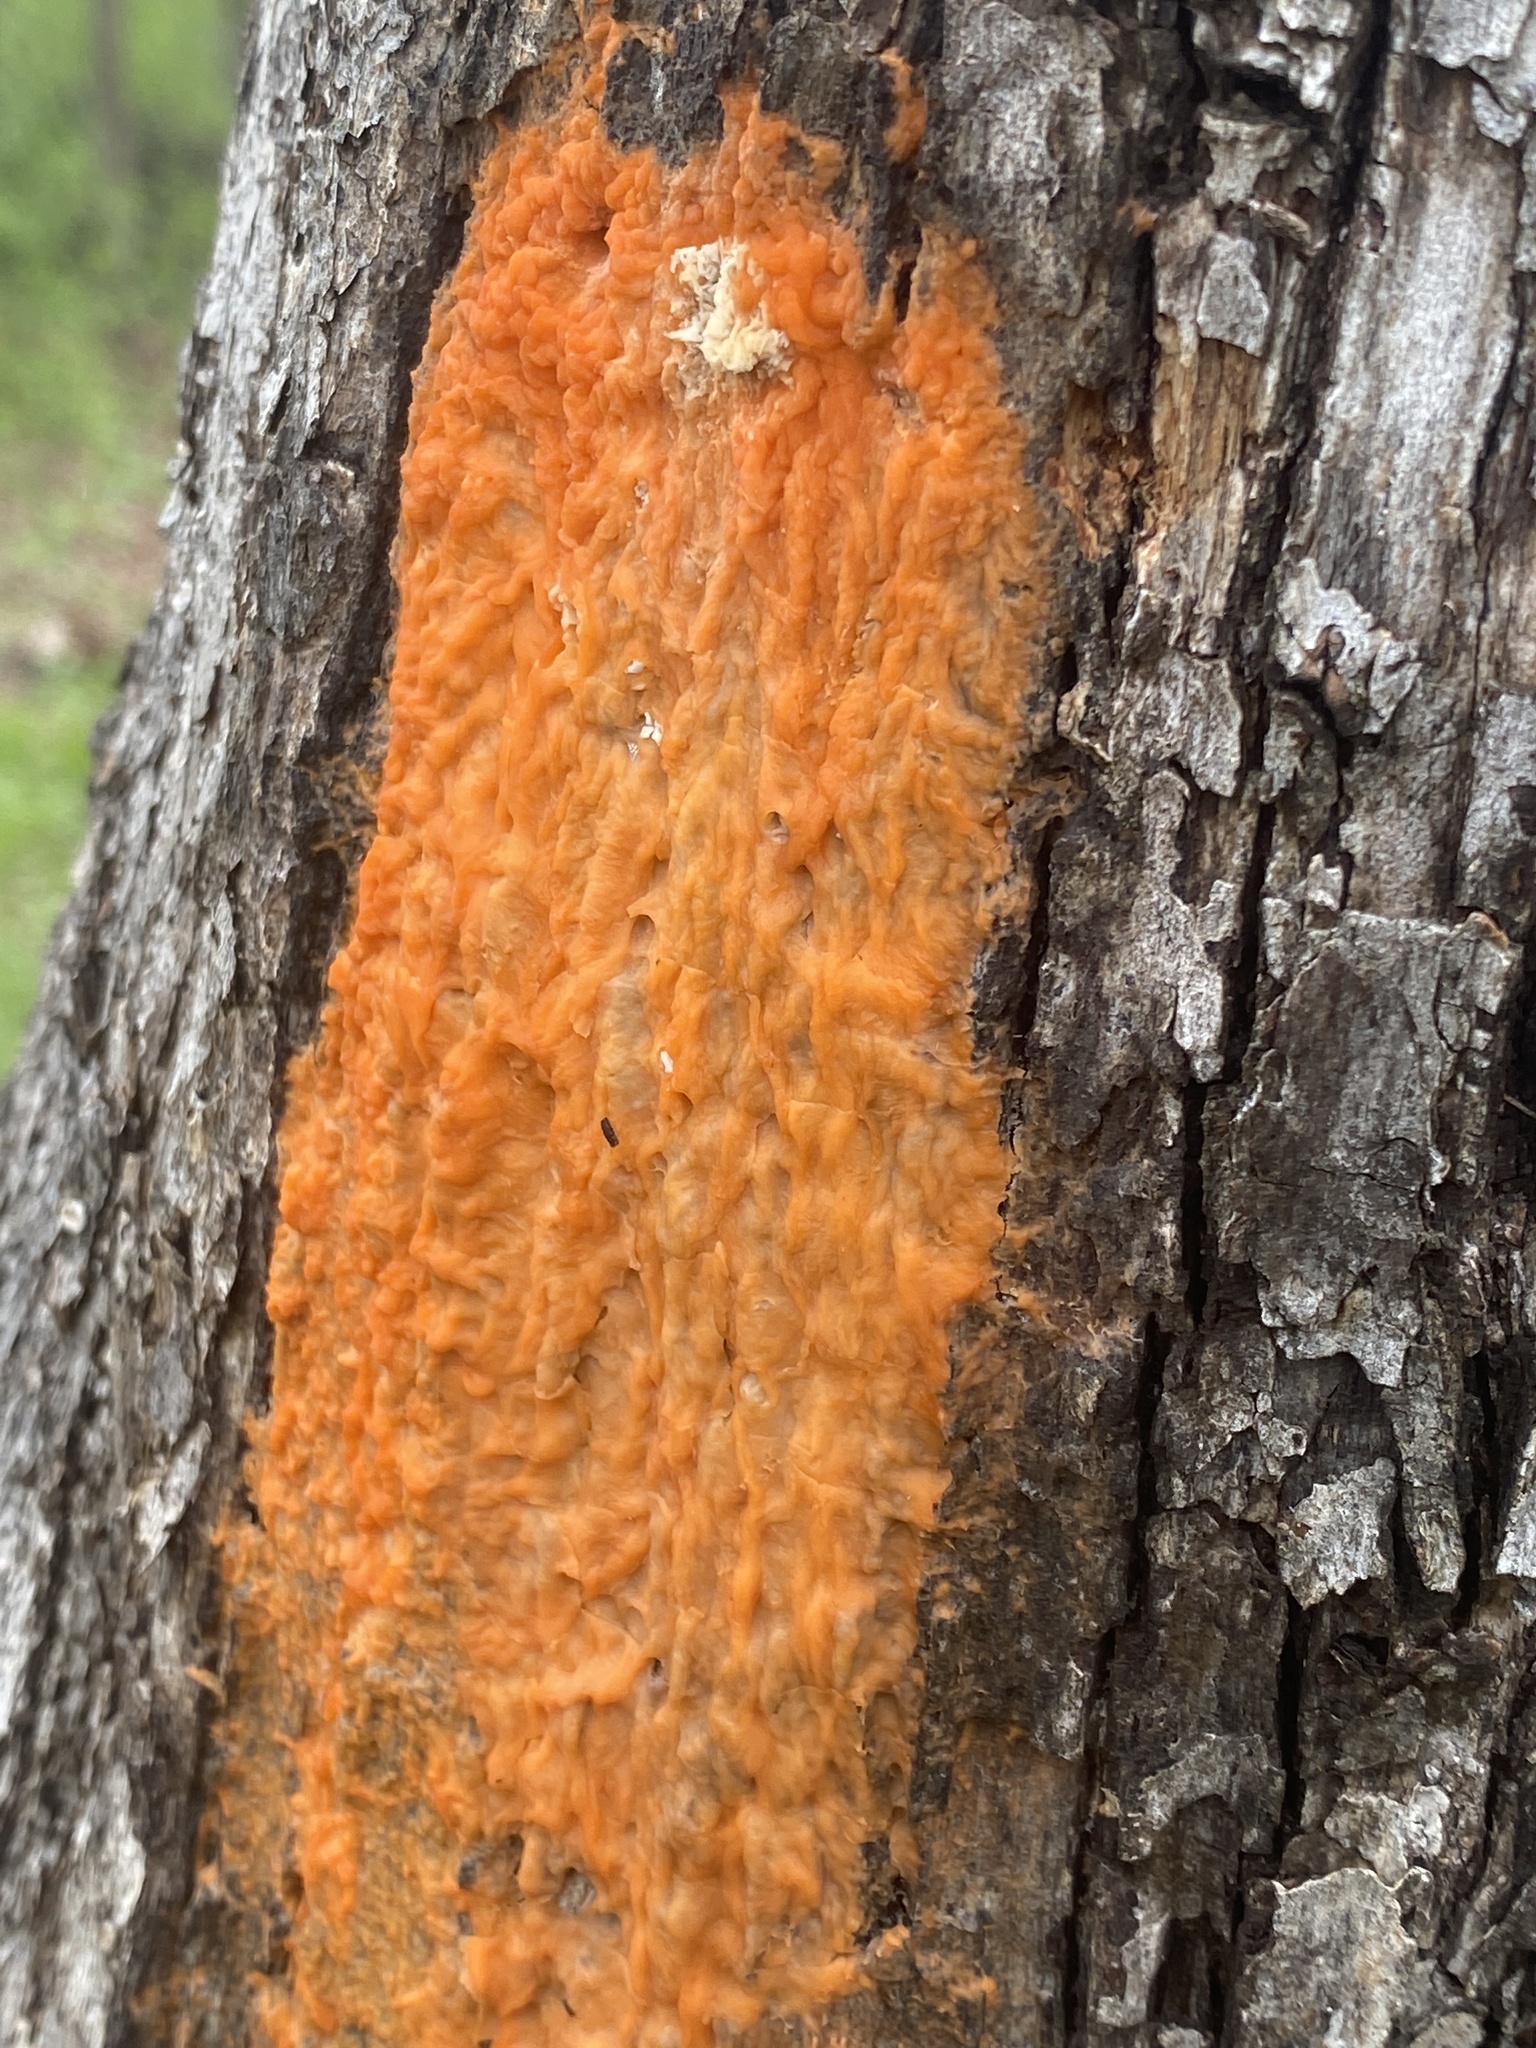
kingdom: Fungi
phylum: Ascomycota
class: Sordariomycetes
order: Hypocreales
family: Nectriaceae
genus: Fusicolla
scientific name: Fusicolla merismoides
